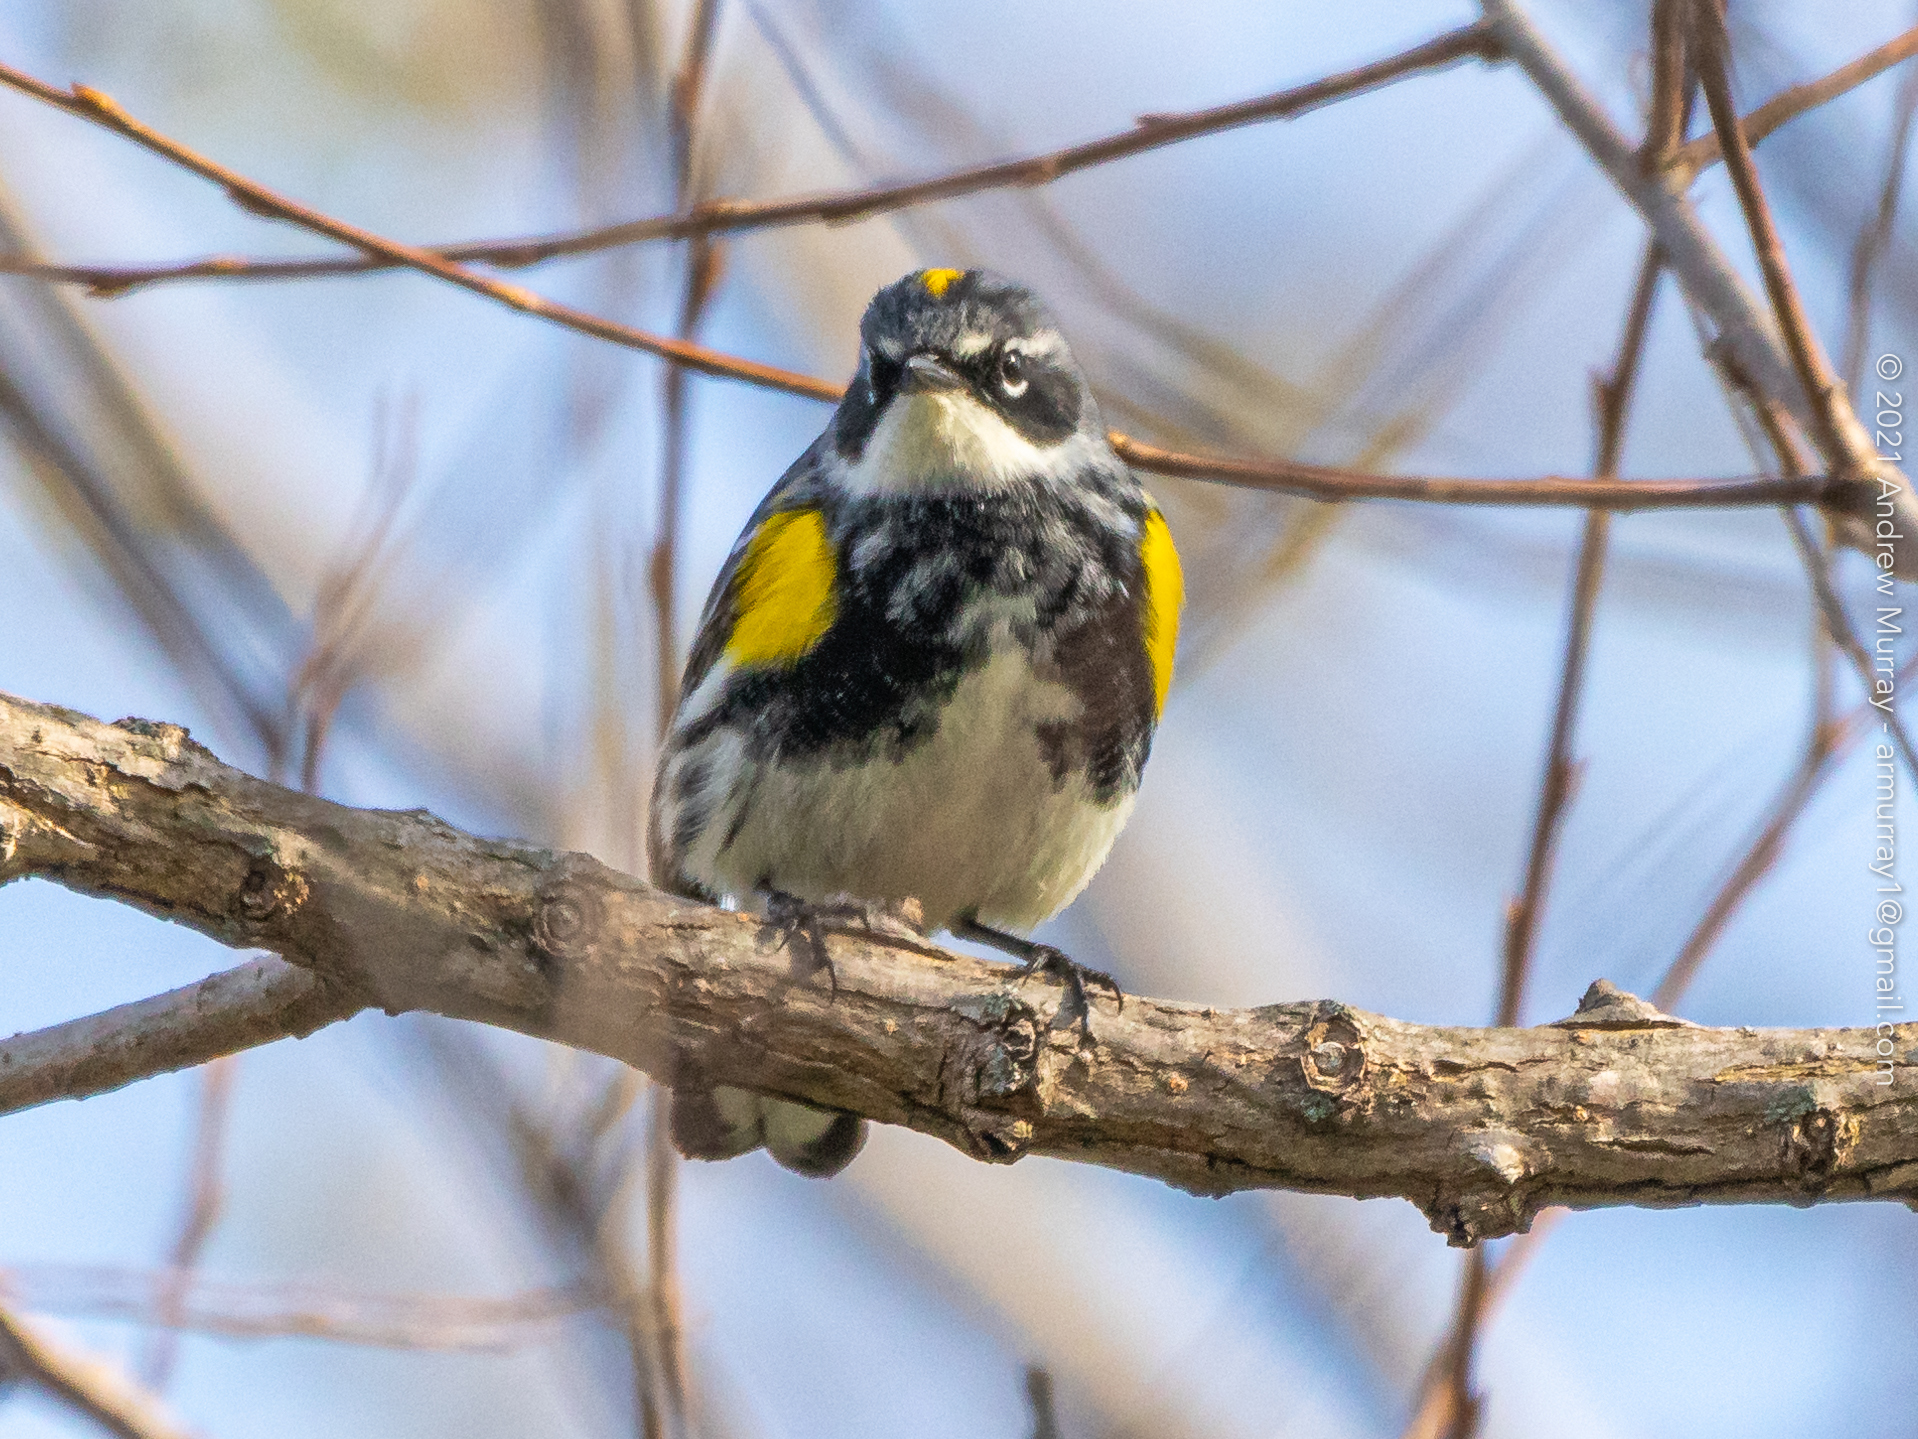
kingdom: Animalia
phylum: Chordata
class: Aves
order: Passeriformes
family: Parulidae
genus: Setophaga
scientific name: Setophaga coronata
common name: Myrtle warbler
